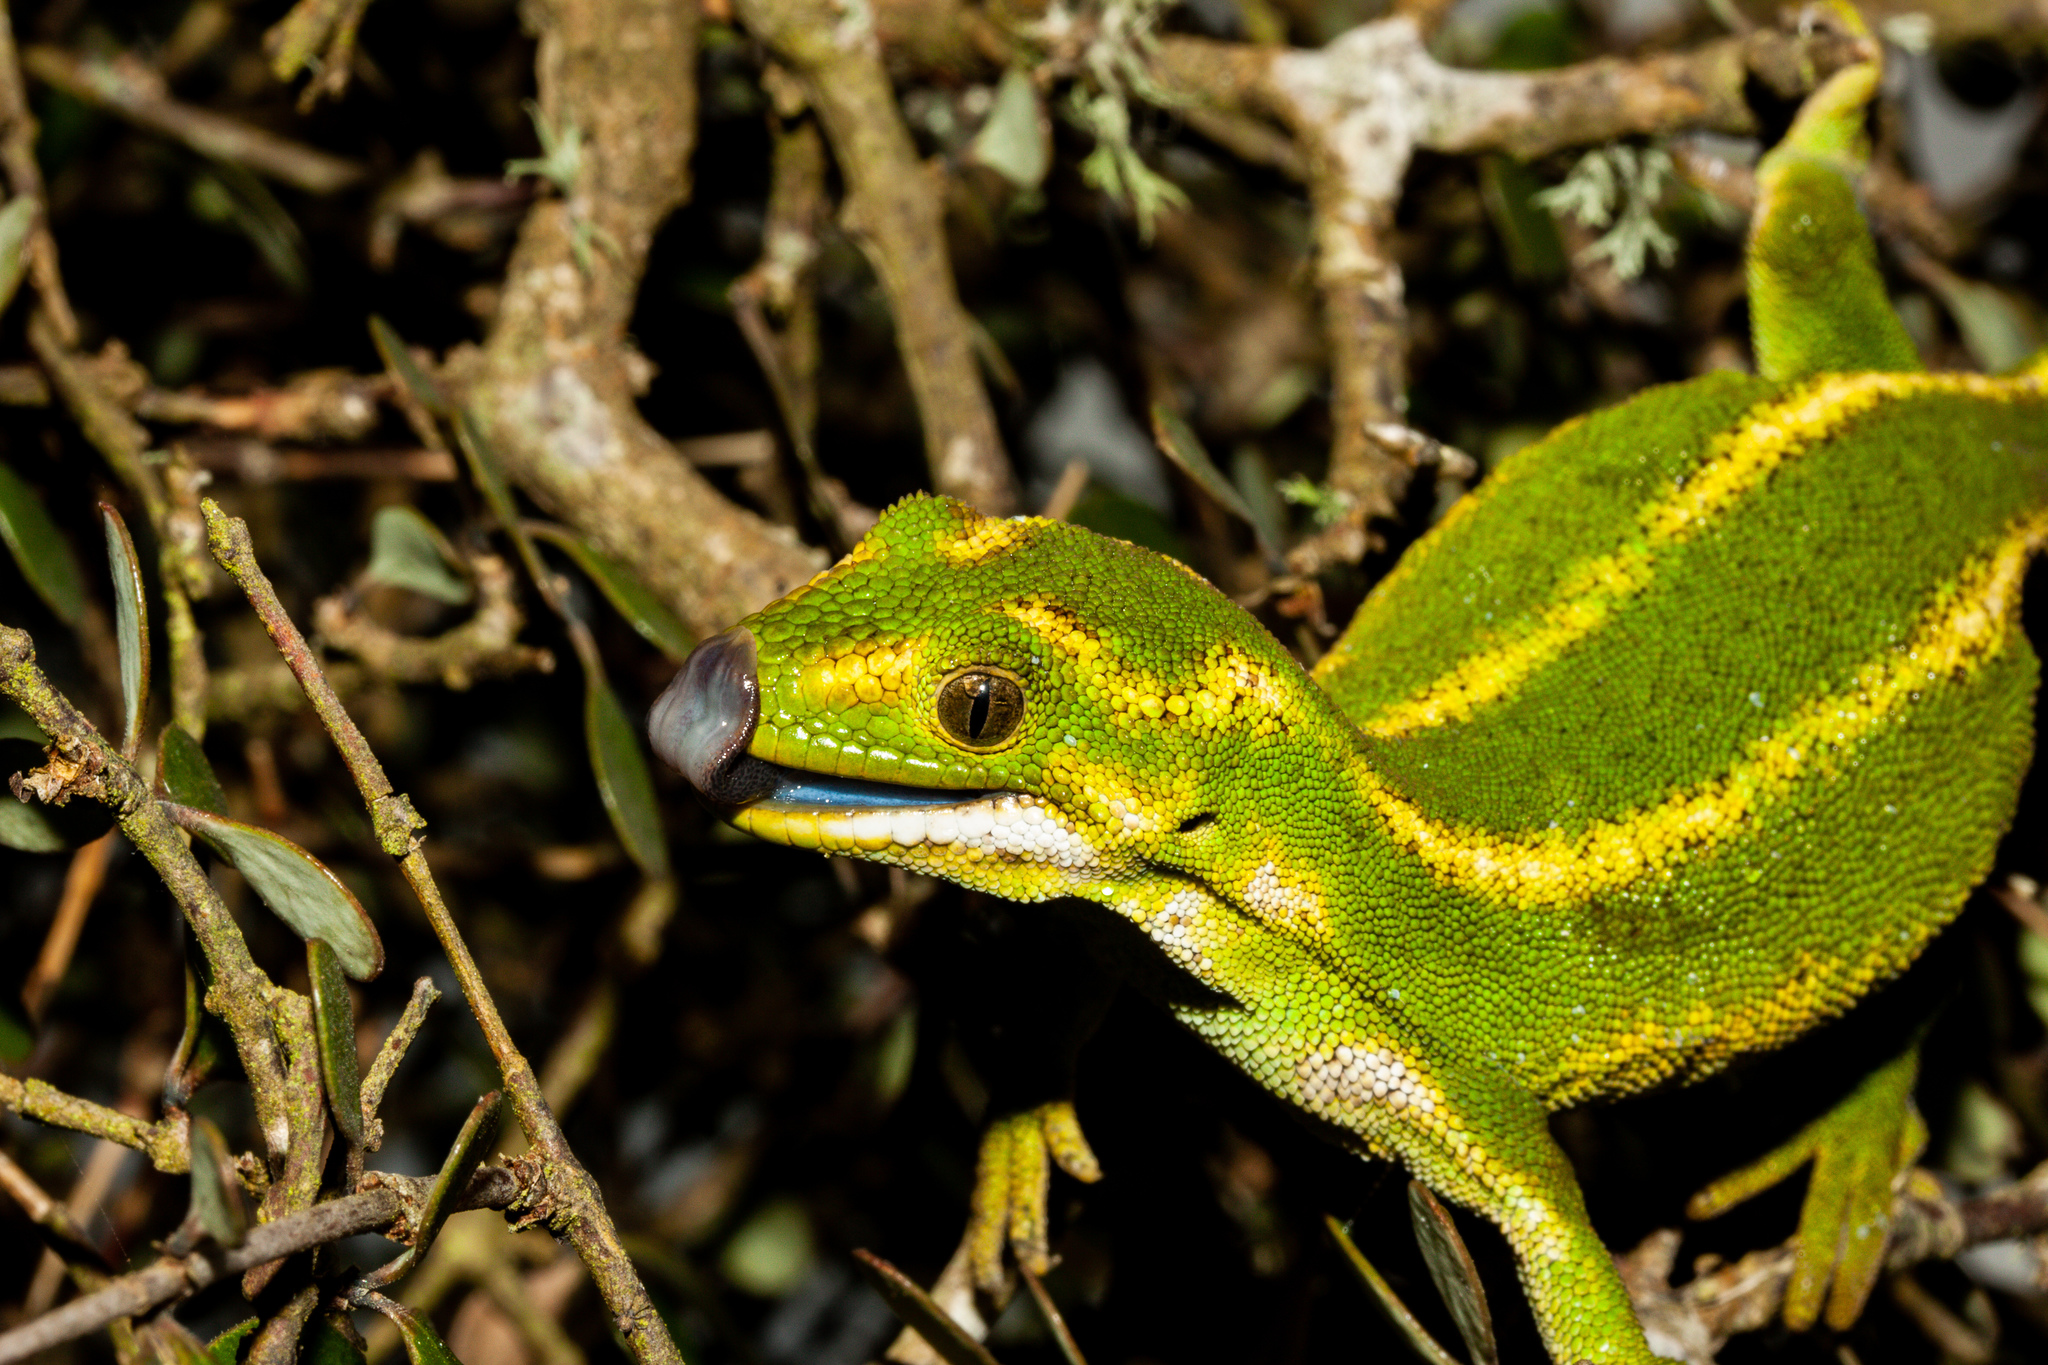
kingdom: Animalia
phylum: Chordata
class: Squamata
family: Diplodactylidae
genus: Naultinus
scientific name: Naultinus gemmeus
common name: Jewelled gecko
